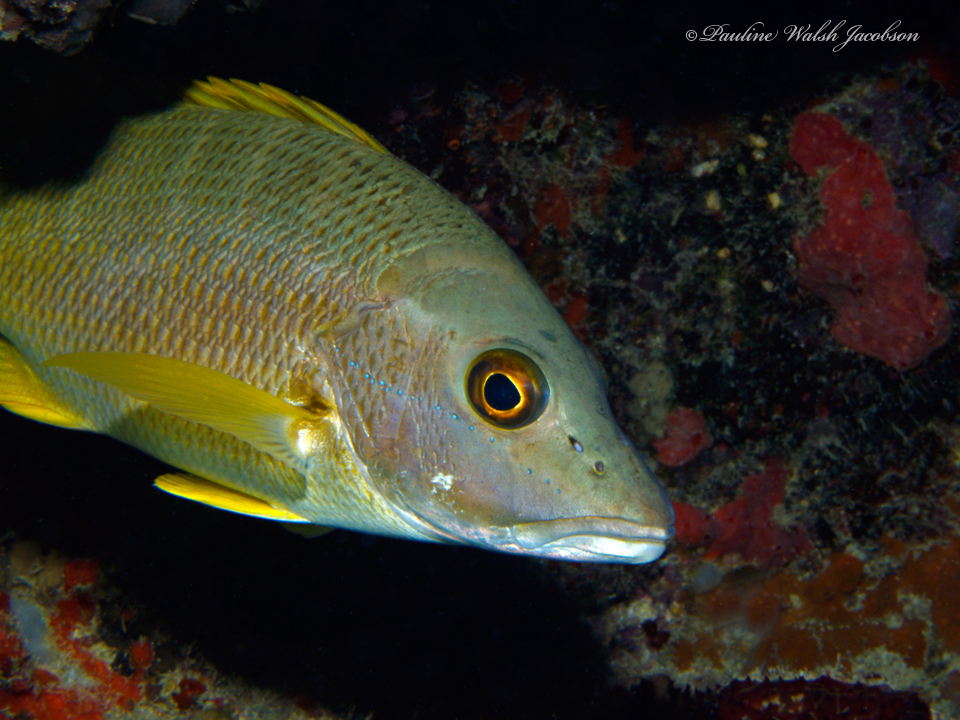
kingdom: Animalia
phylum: Chordata
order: Perciformes
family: Lutjanidae
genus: Lutjanus
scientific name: Lutjanus apodus
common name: Schoolmaster
